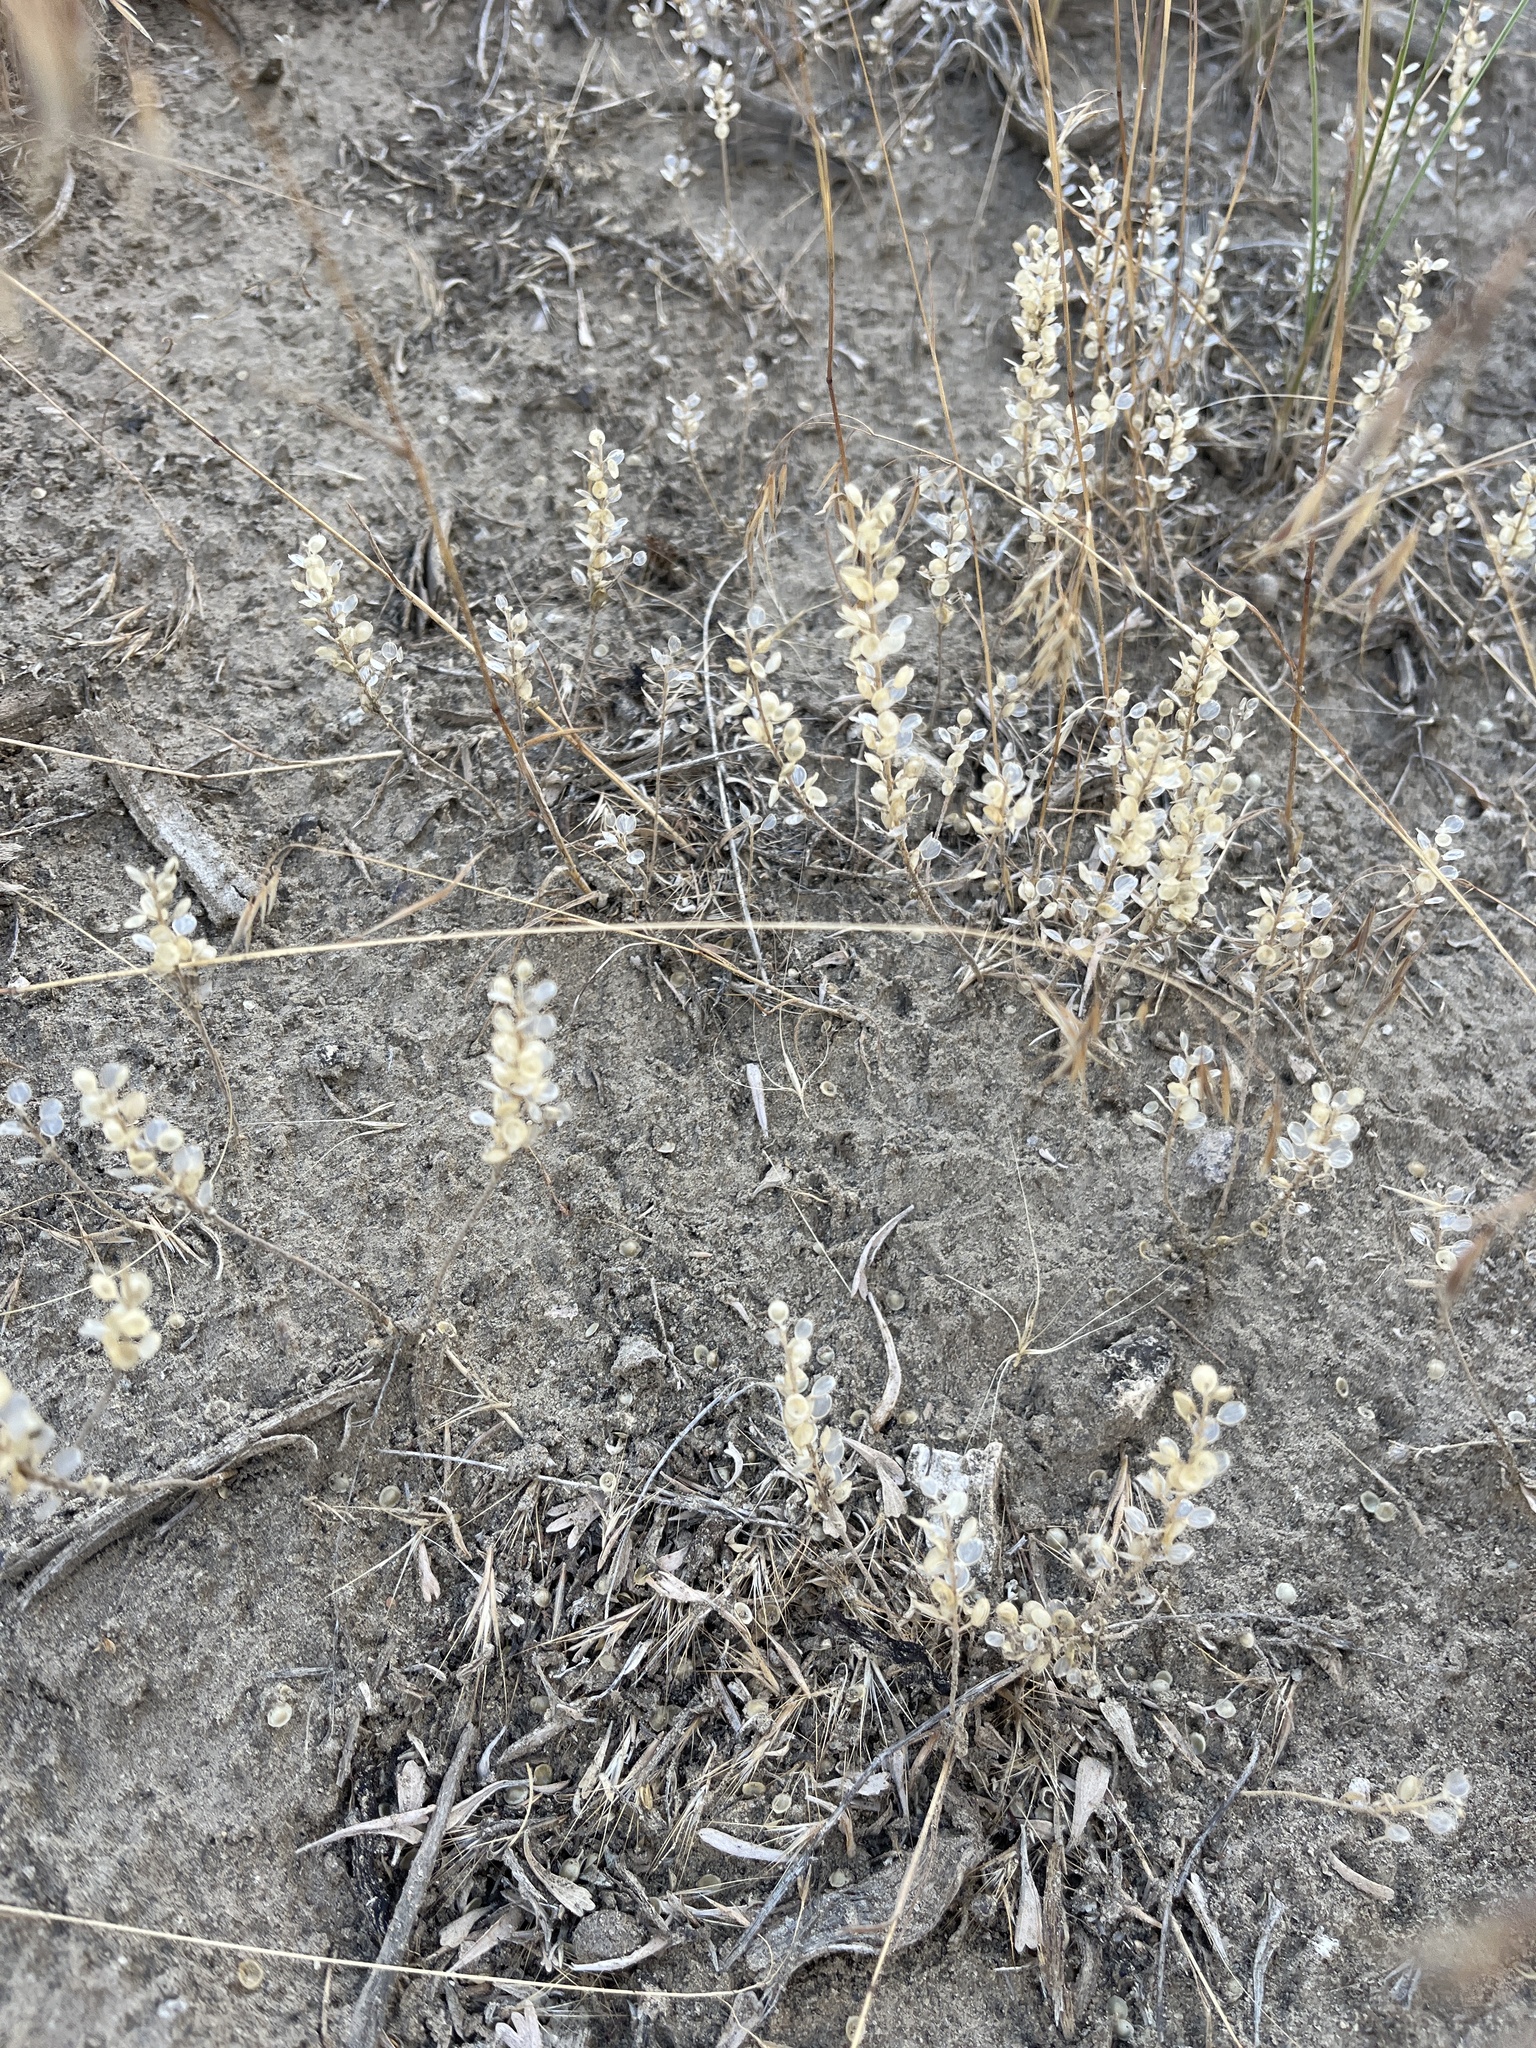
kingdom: Plantae
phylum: Tracheophyta
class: Magnoliopsida
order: Brassicales
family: Brassicaceae
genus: Alyssum
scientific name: Alyssum turkestanicum
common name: Desert alyssum
